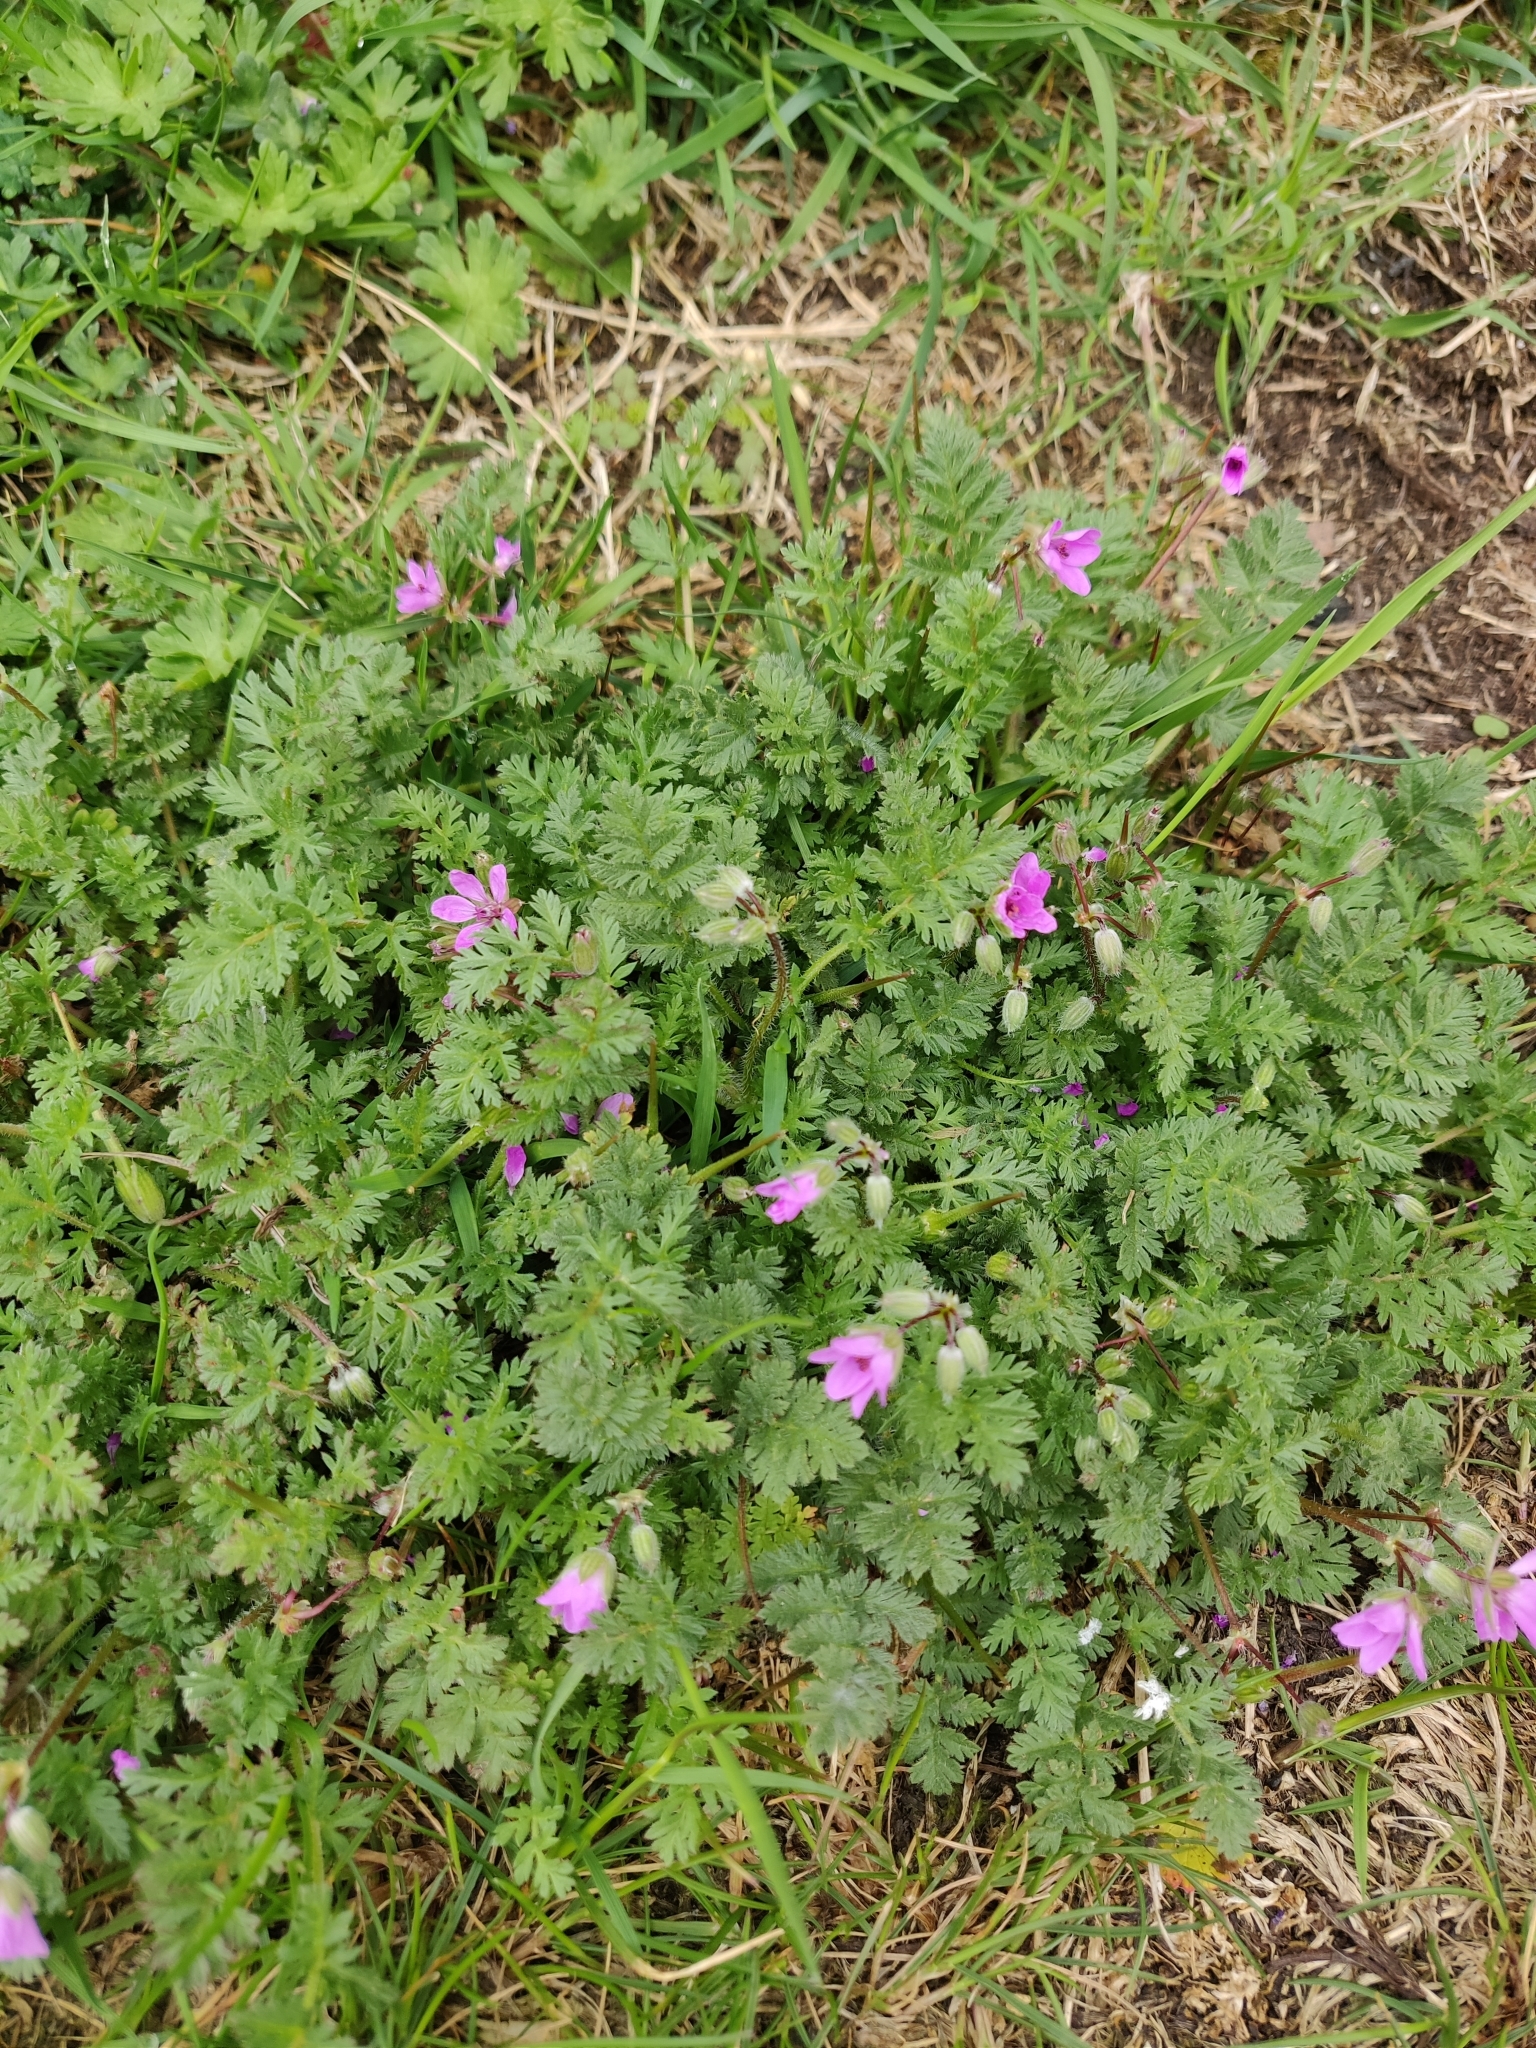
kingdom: Plantae
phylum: Tracheophyta
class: Magnoliopsida
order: Geraniales
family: Geraniaceae
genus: Erodium
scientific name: Erodium cicutarium
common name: Common stork's-bill
